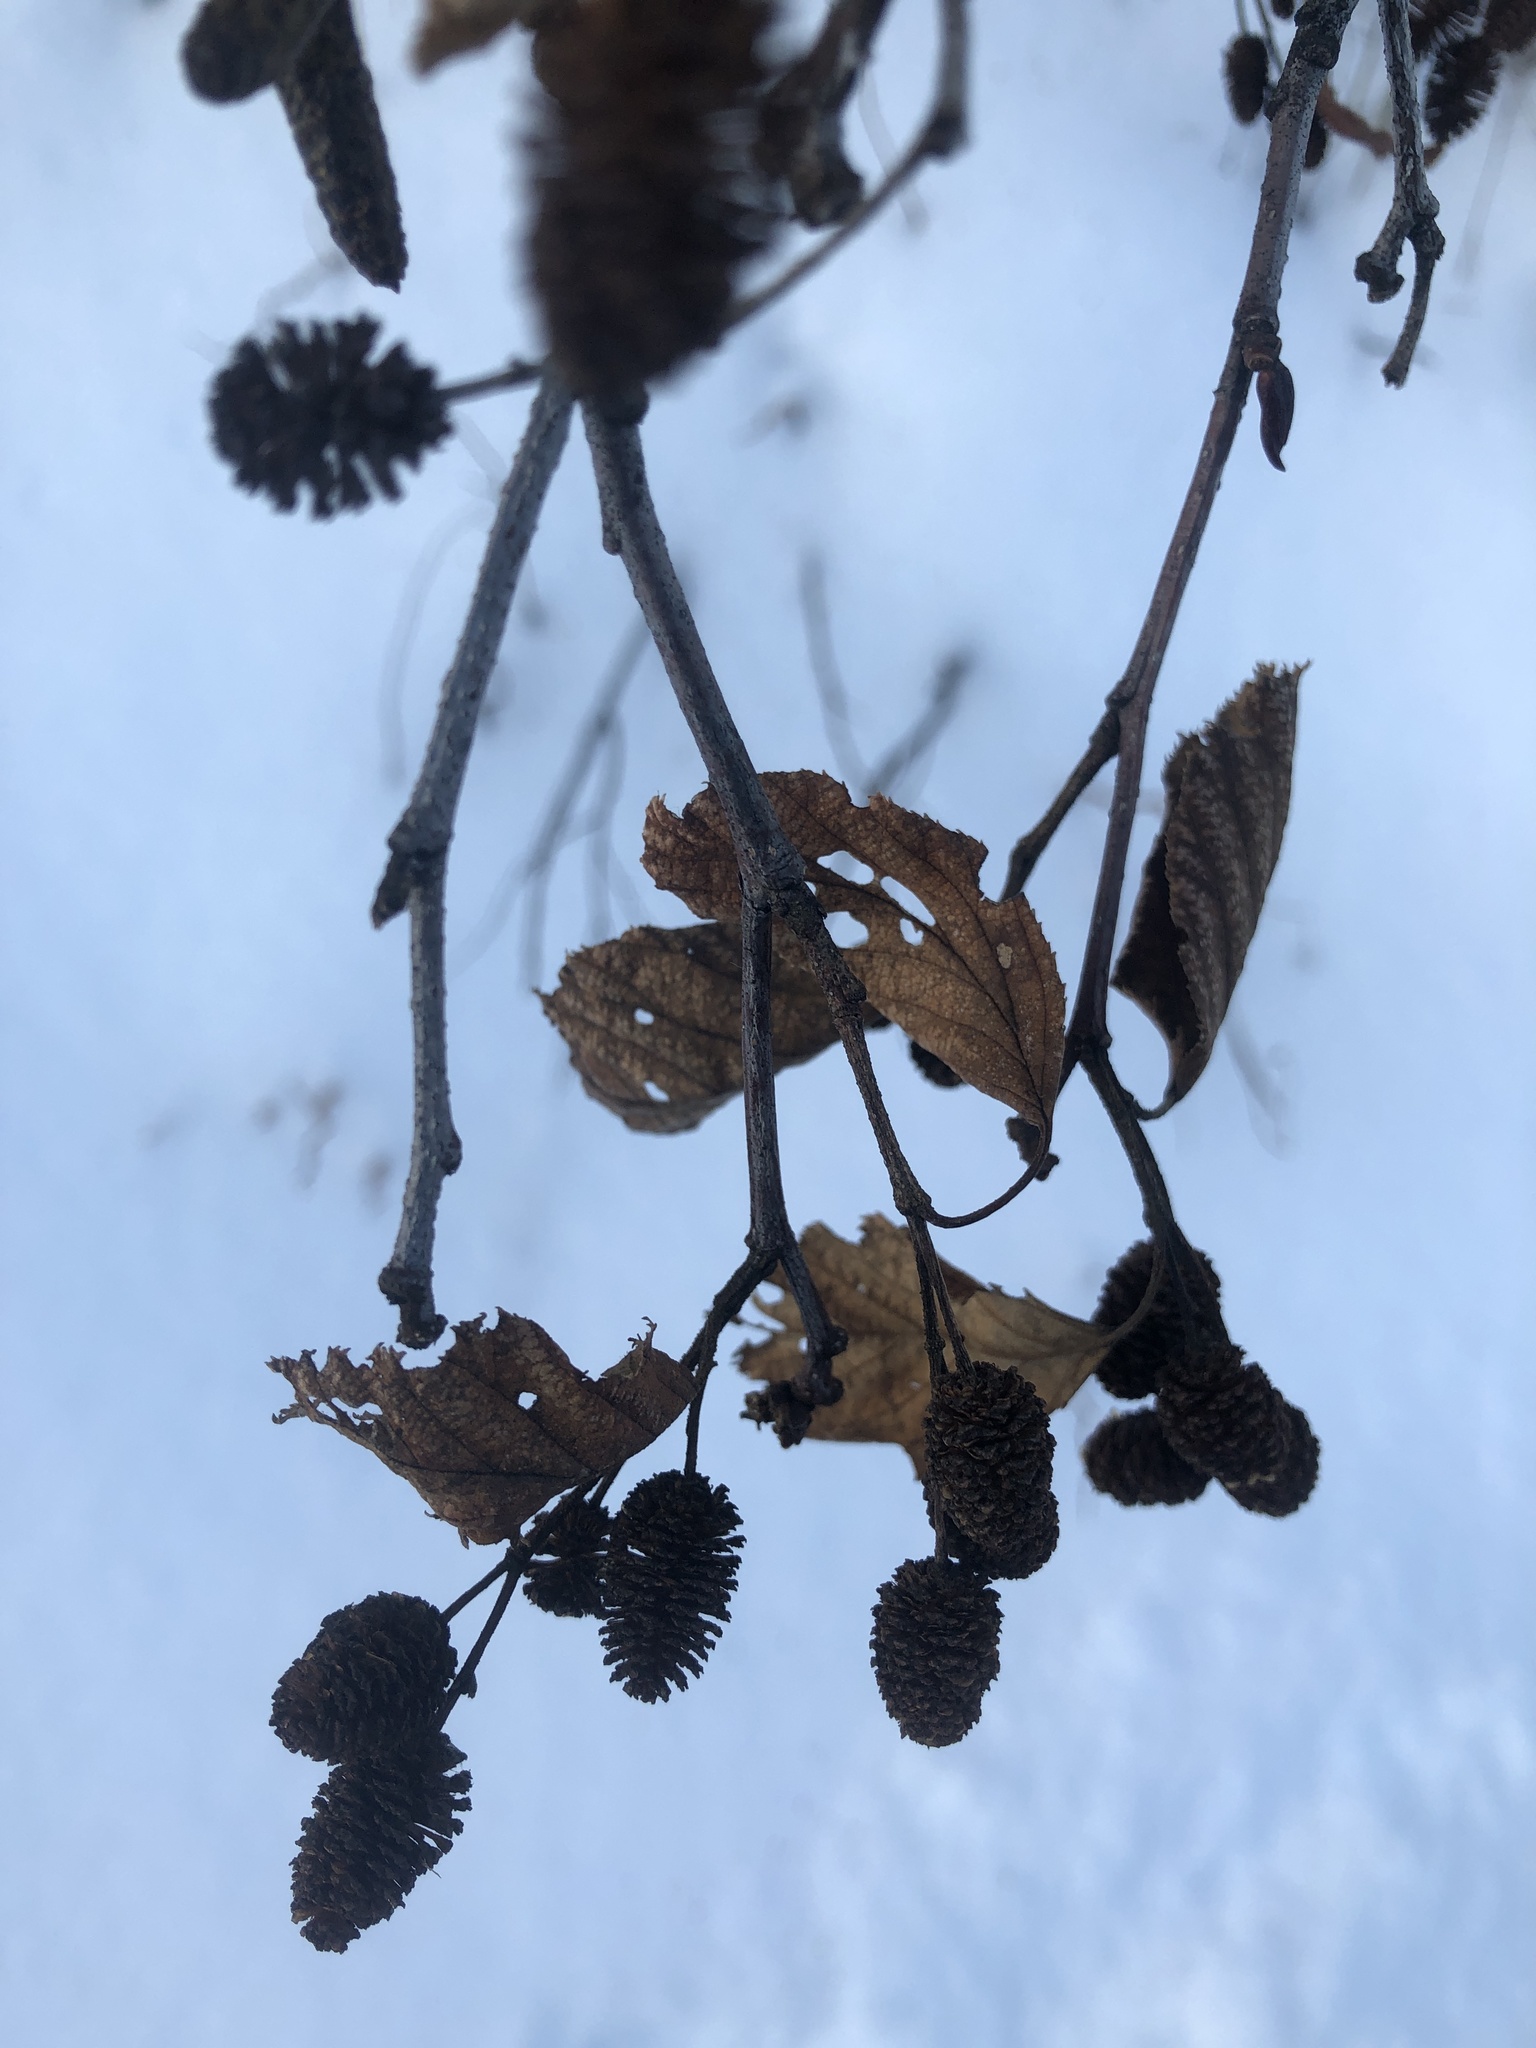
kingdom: Plantae
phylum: Tracheophyta
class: Magnoliopsida
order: Fagales
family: Betulaceae
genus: Alnus
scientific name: Alnus alnobetula
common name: Green alder
